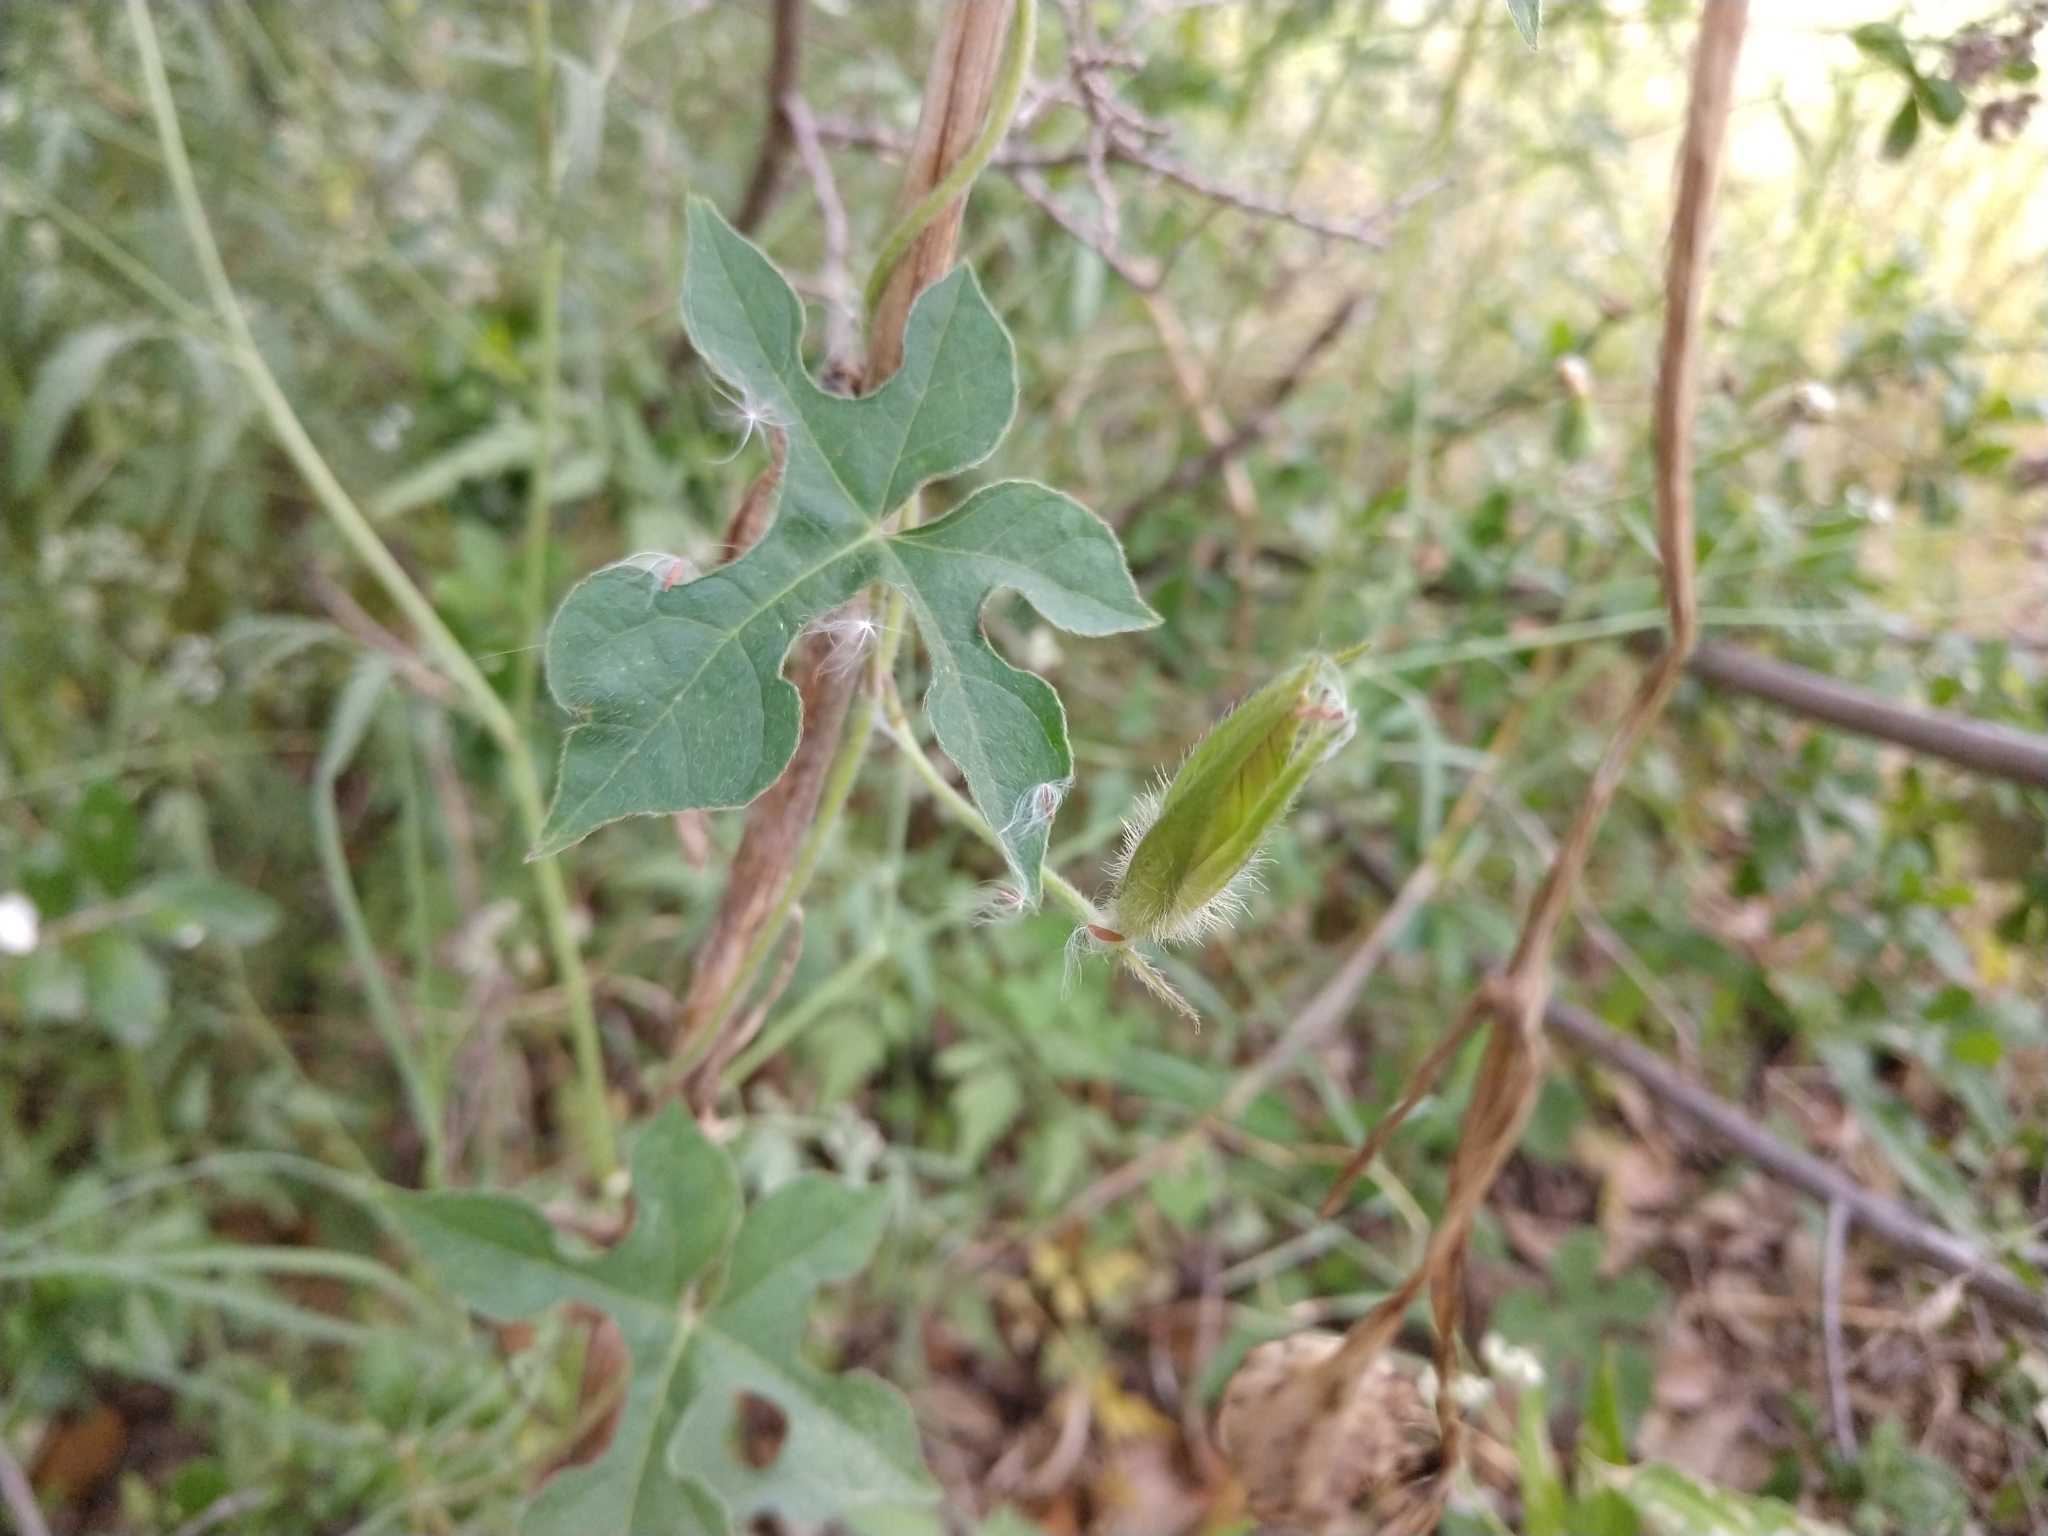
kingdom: Plantae
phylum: Tracheophyta
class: Magnoliopsida
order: Solanales
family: Convolvulaceae
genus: Ipomoea
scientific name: Ipomoea lindheimeri
